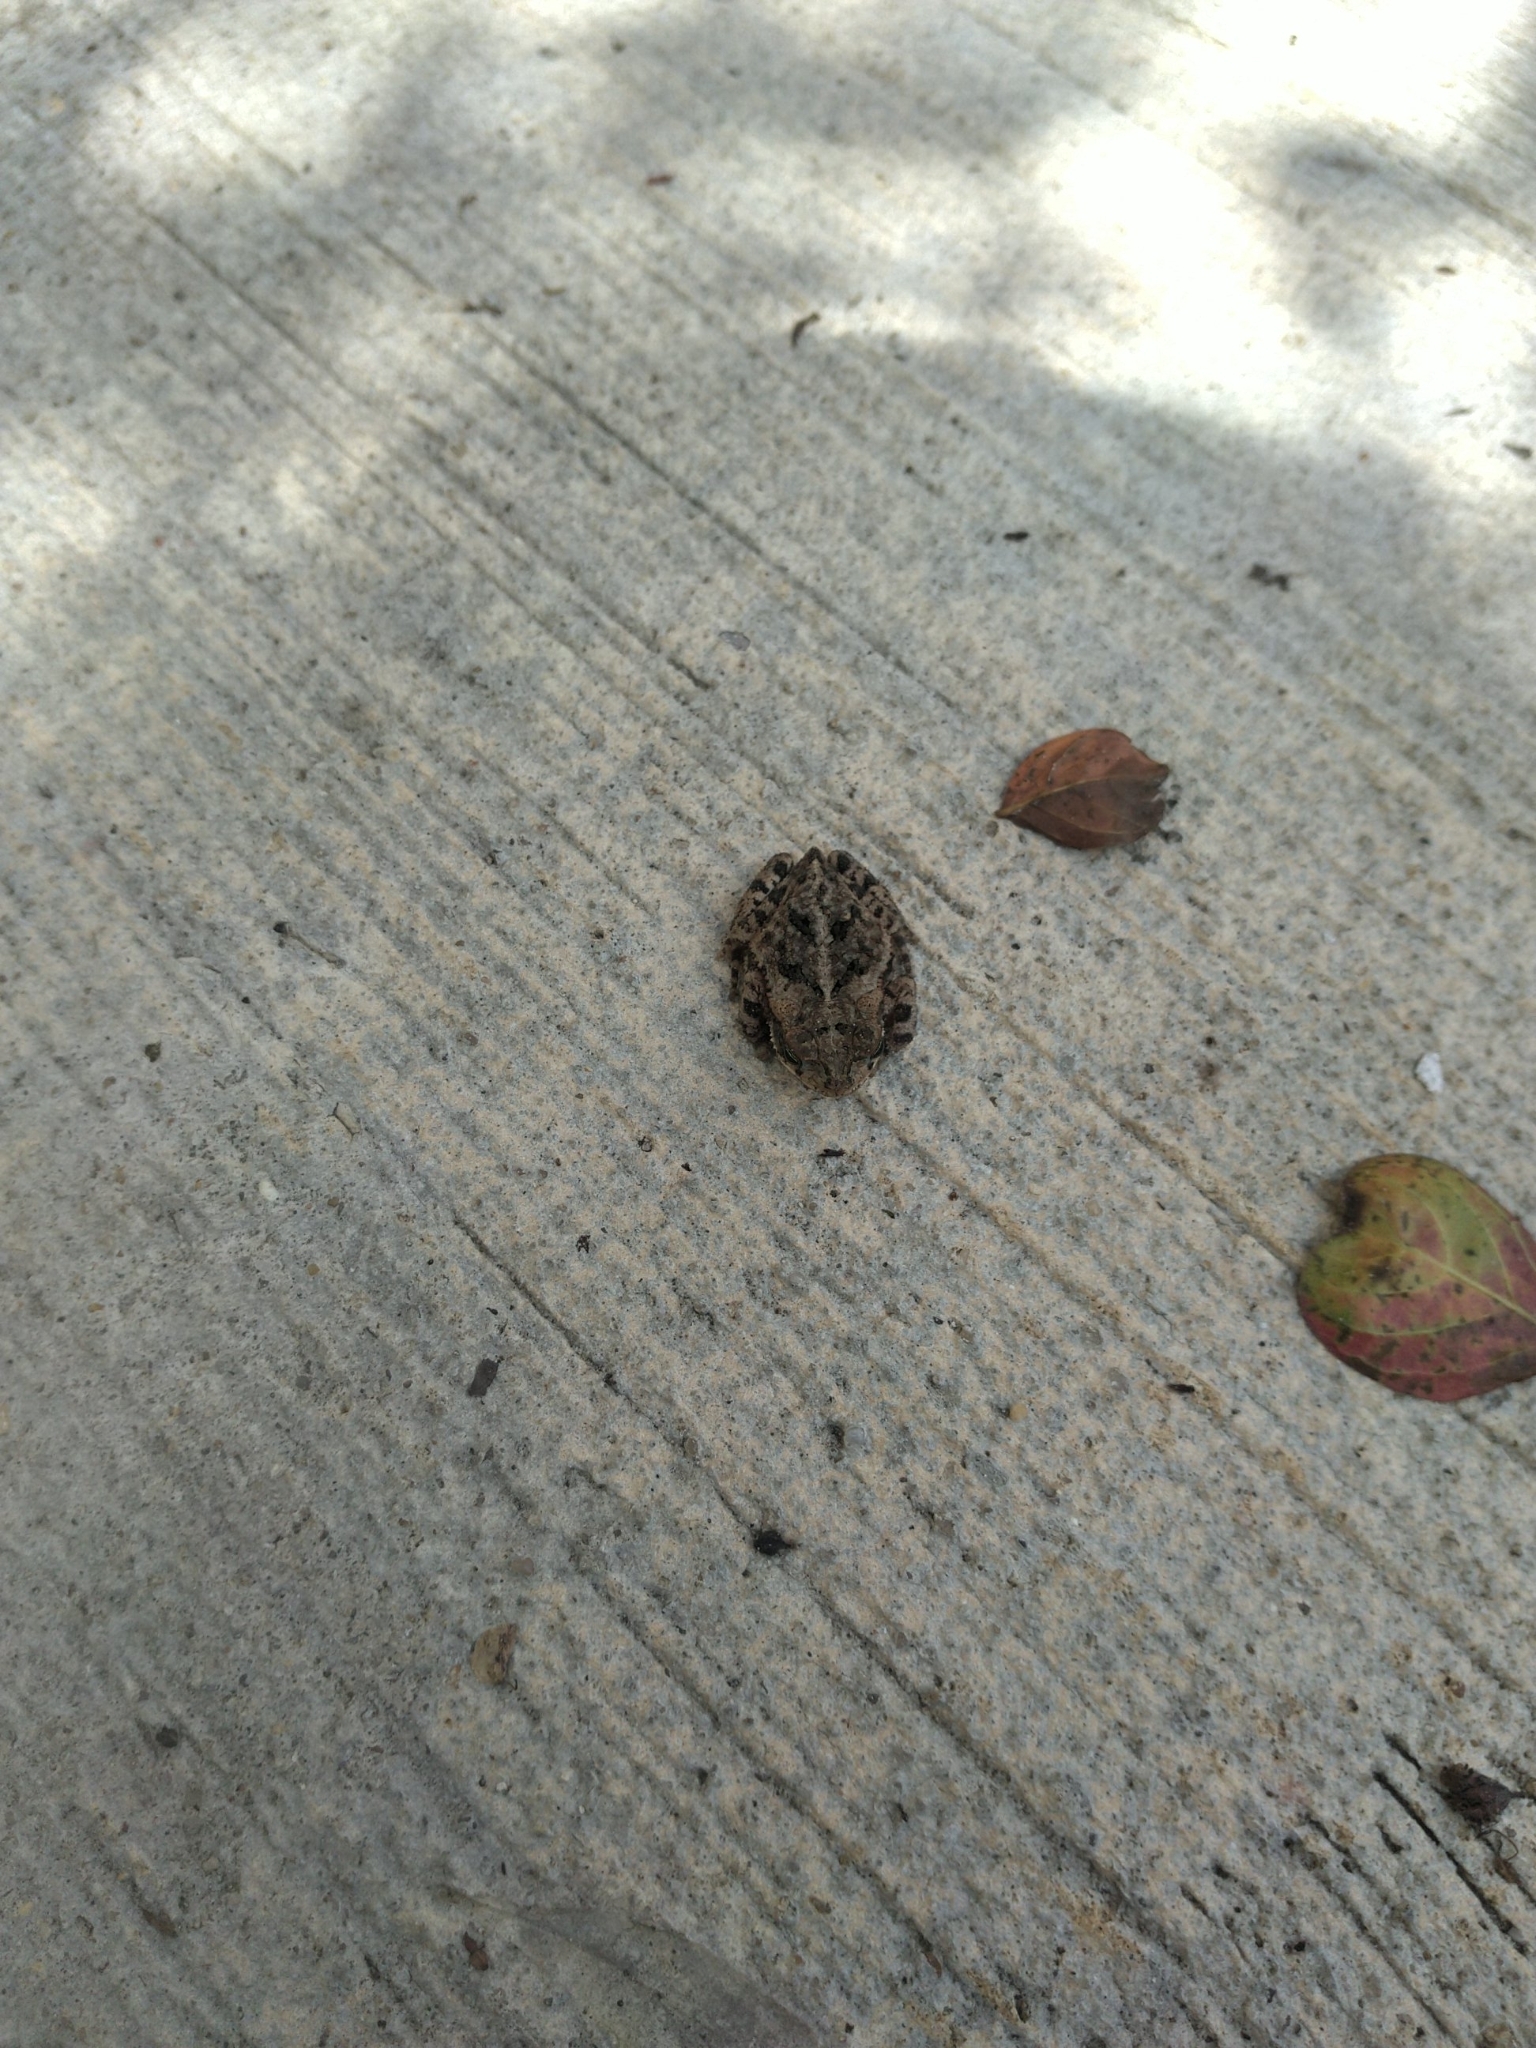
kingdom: Animalia
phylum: Chordata
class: Amphibia
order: Anura
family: Bufonidae
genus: Incilius
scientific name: Incilius nebulifer
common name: Gulf coast toad
